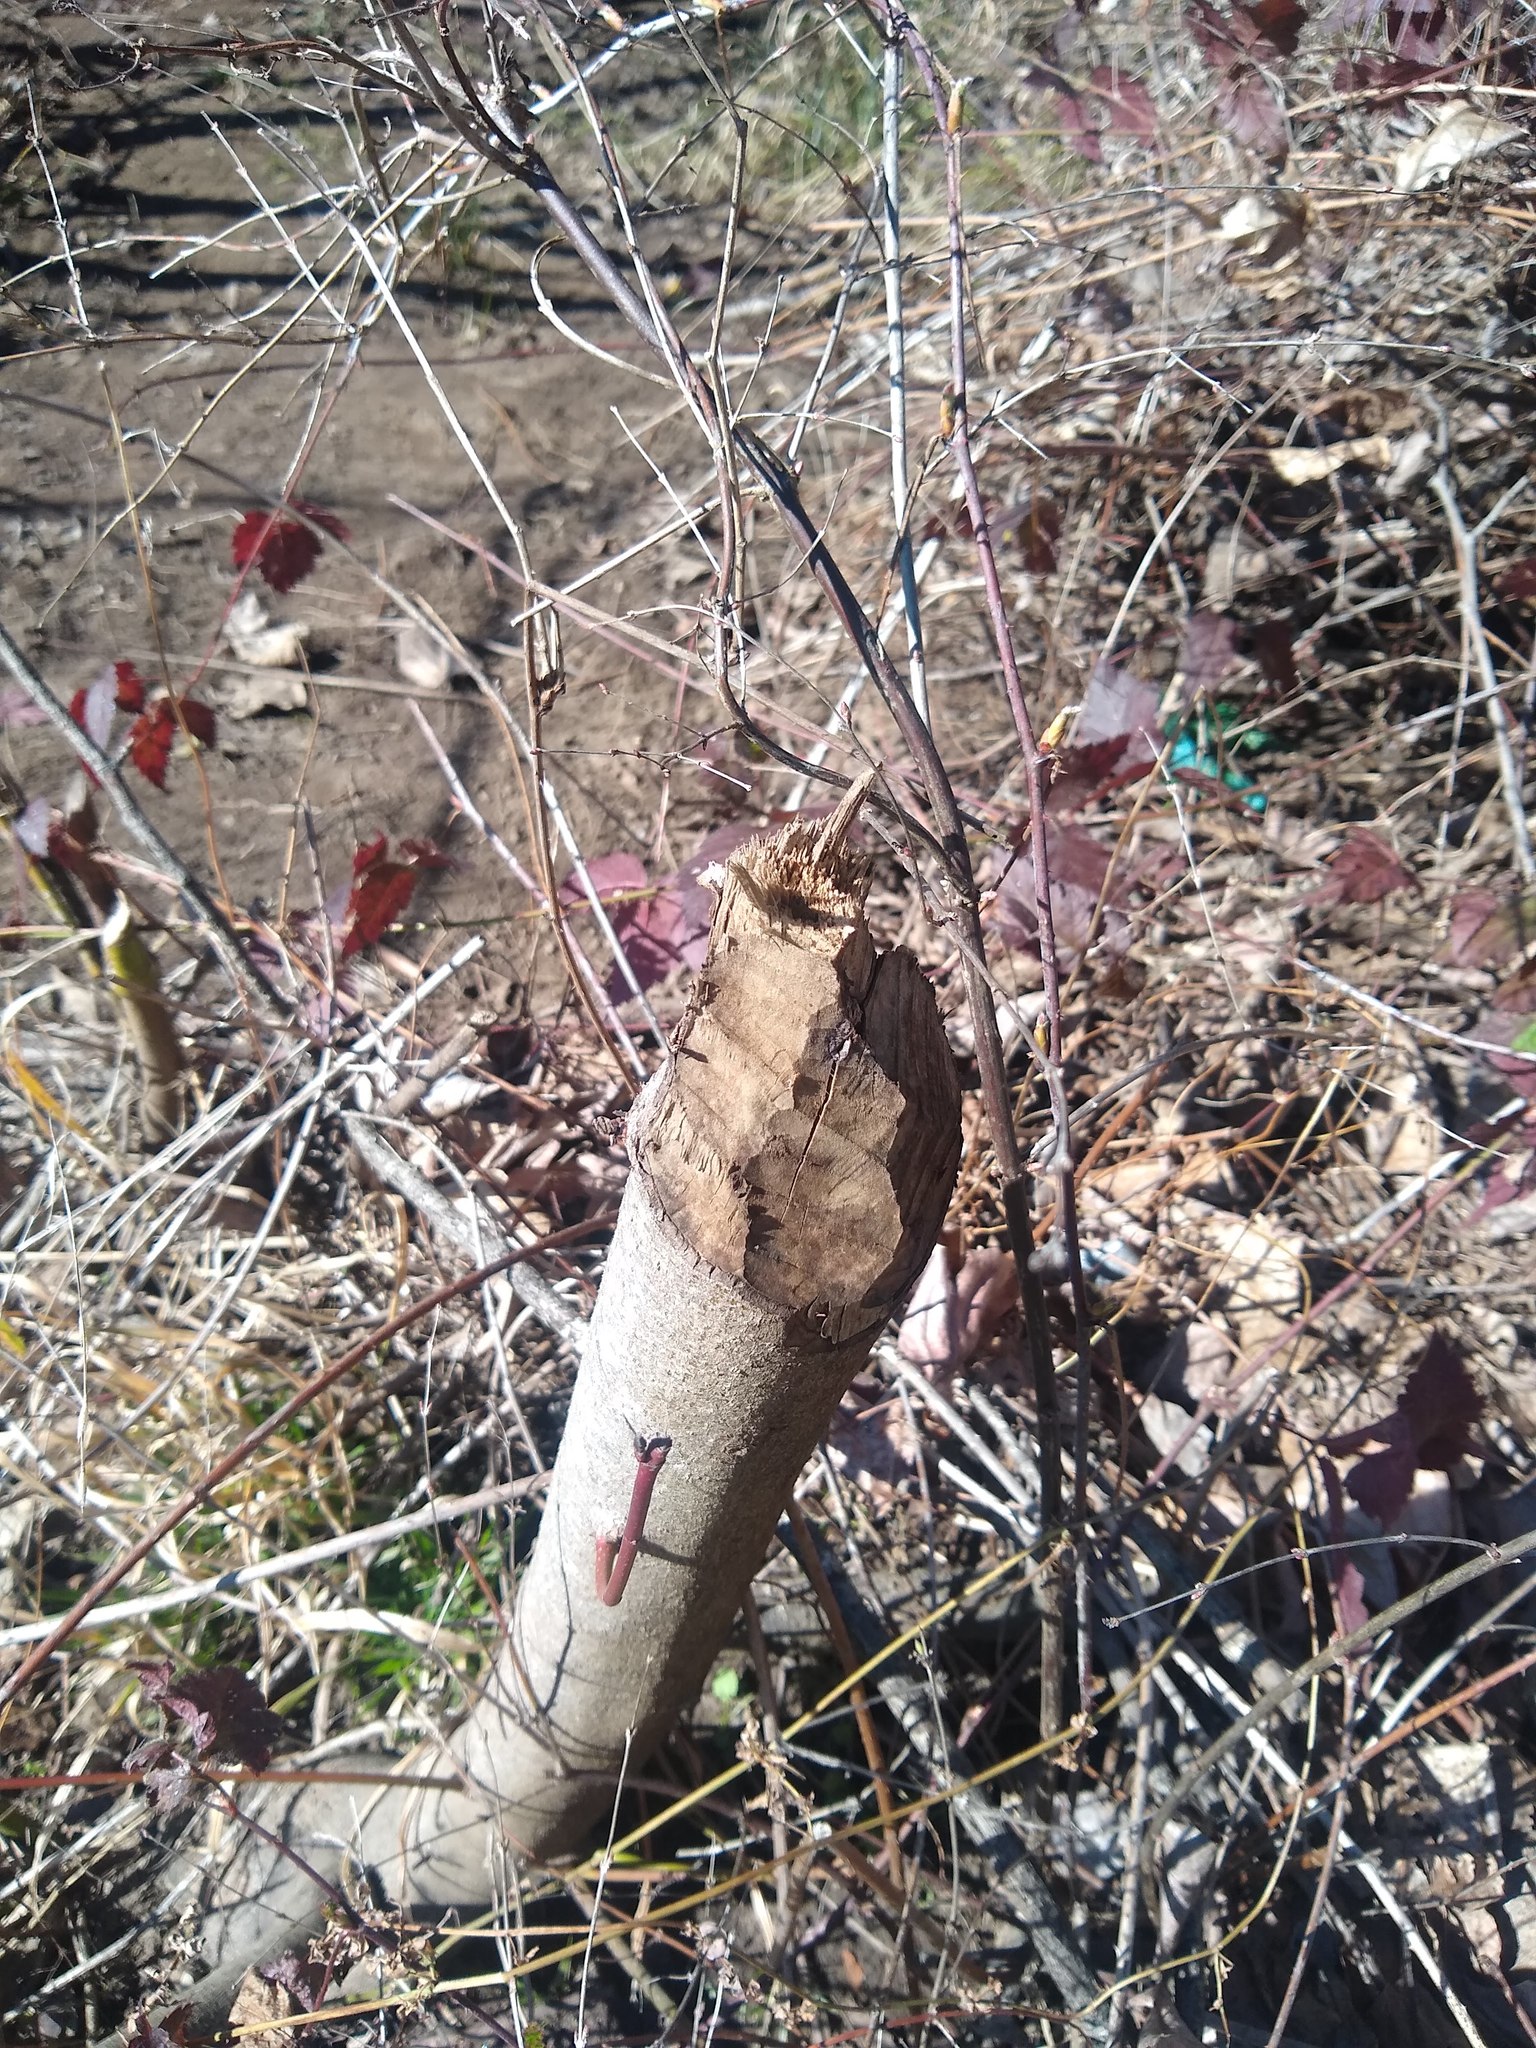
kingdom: Animalia
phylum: Chordata
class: Mammalia
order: Rodentia
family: Castoridae
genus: Castor
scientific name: Castor canadensis
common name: American beaver
